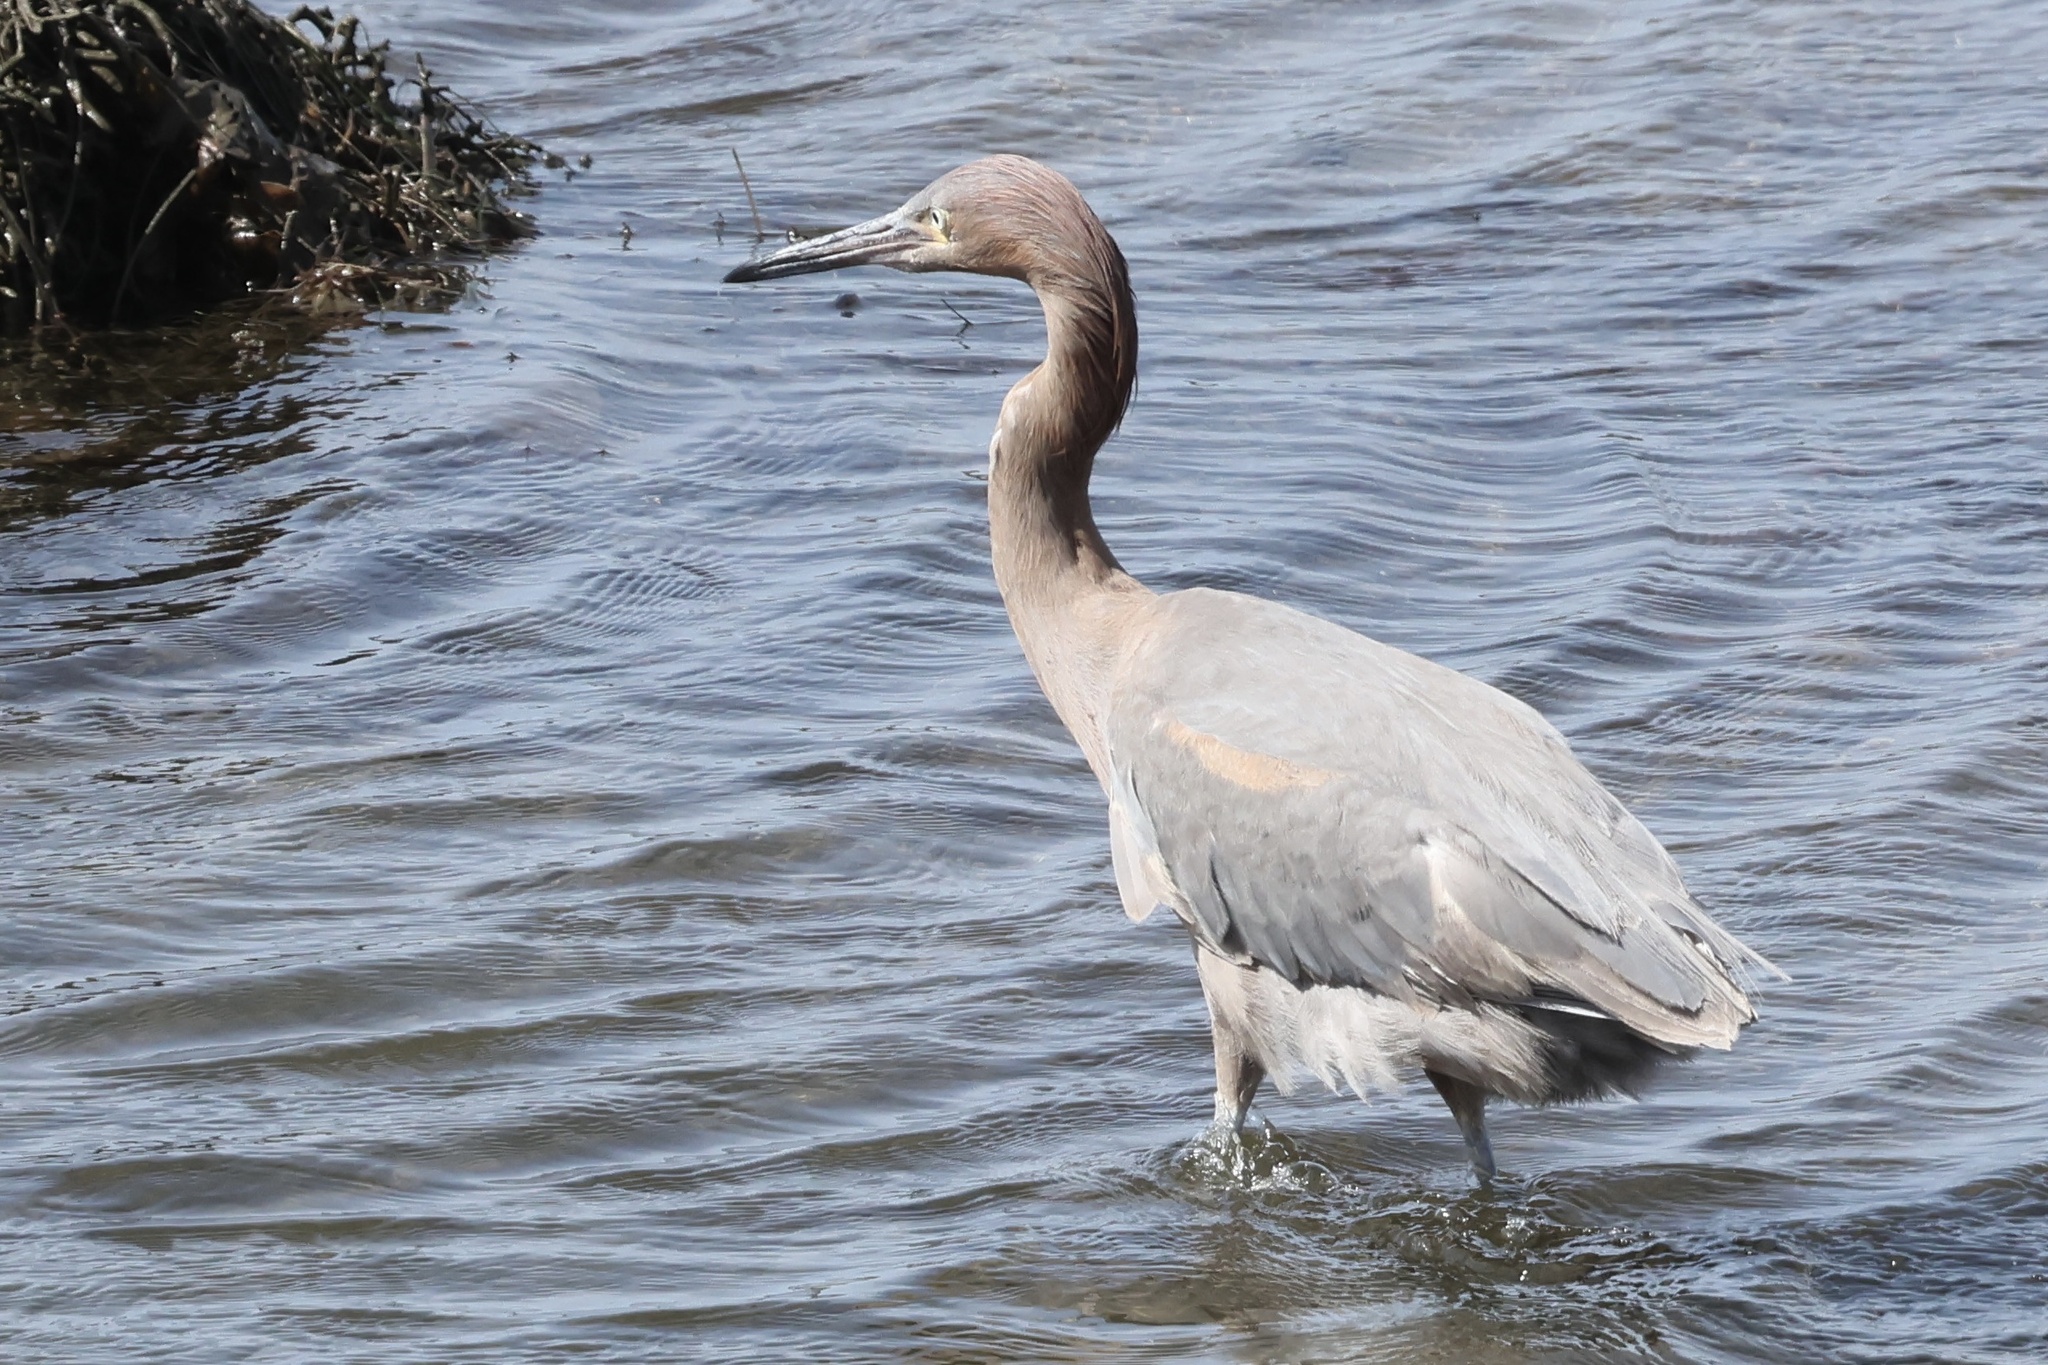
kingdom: Animalia
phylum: Chordata
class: Aves
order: Pelecaniformes
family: Ardeidae
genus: Egretta
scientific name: Egretta rufescens
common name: Reddish egret
